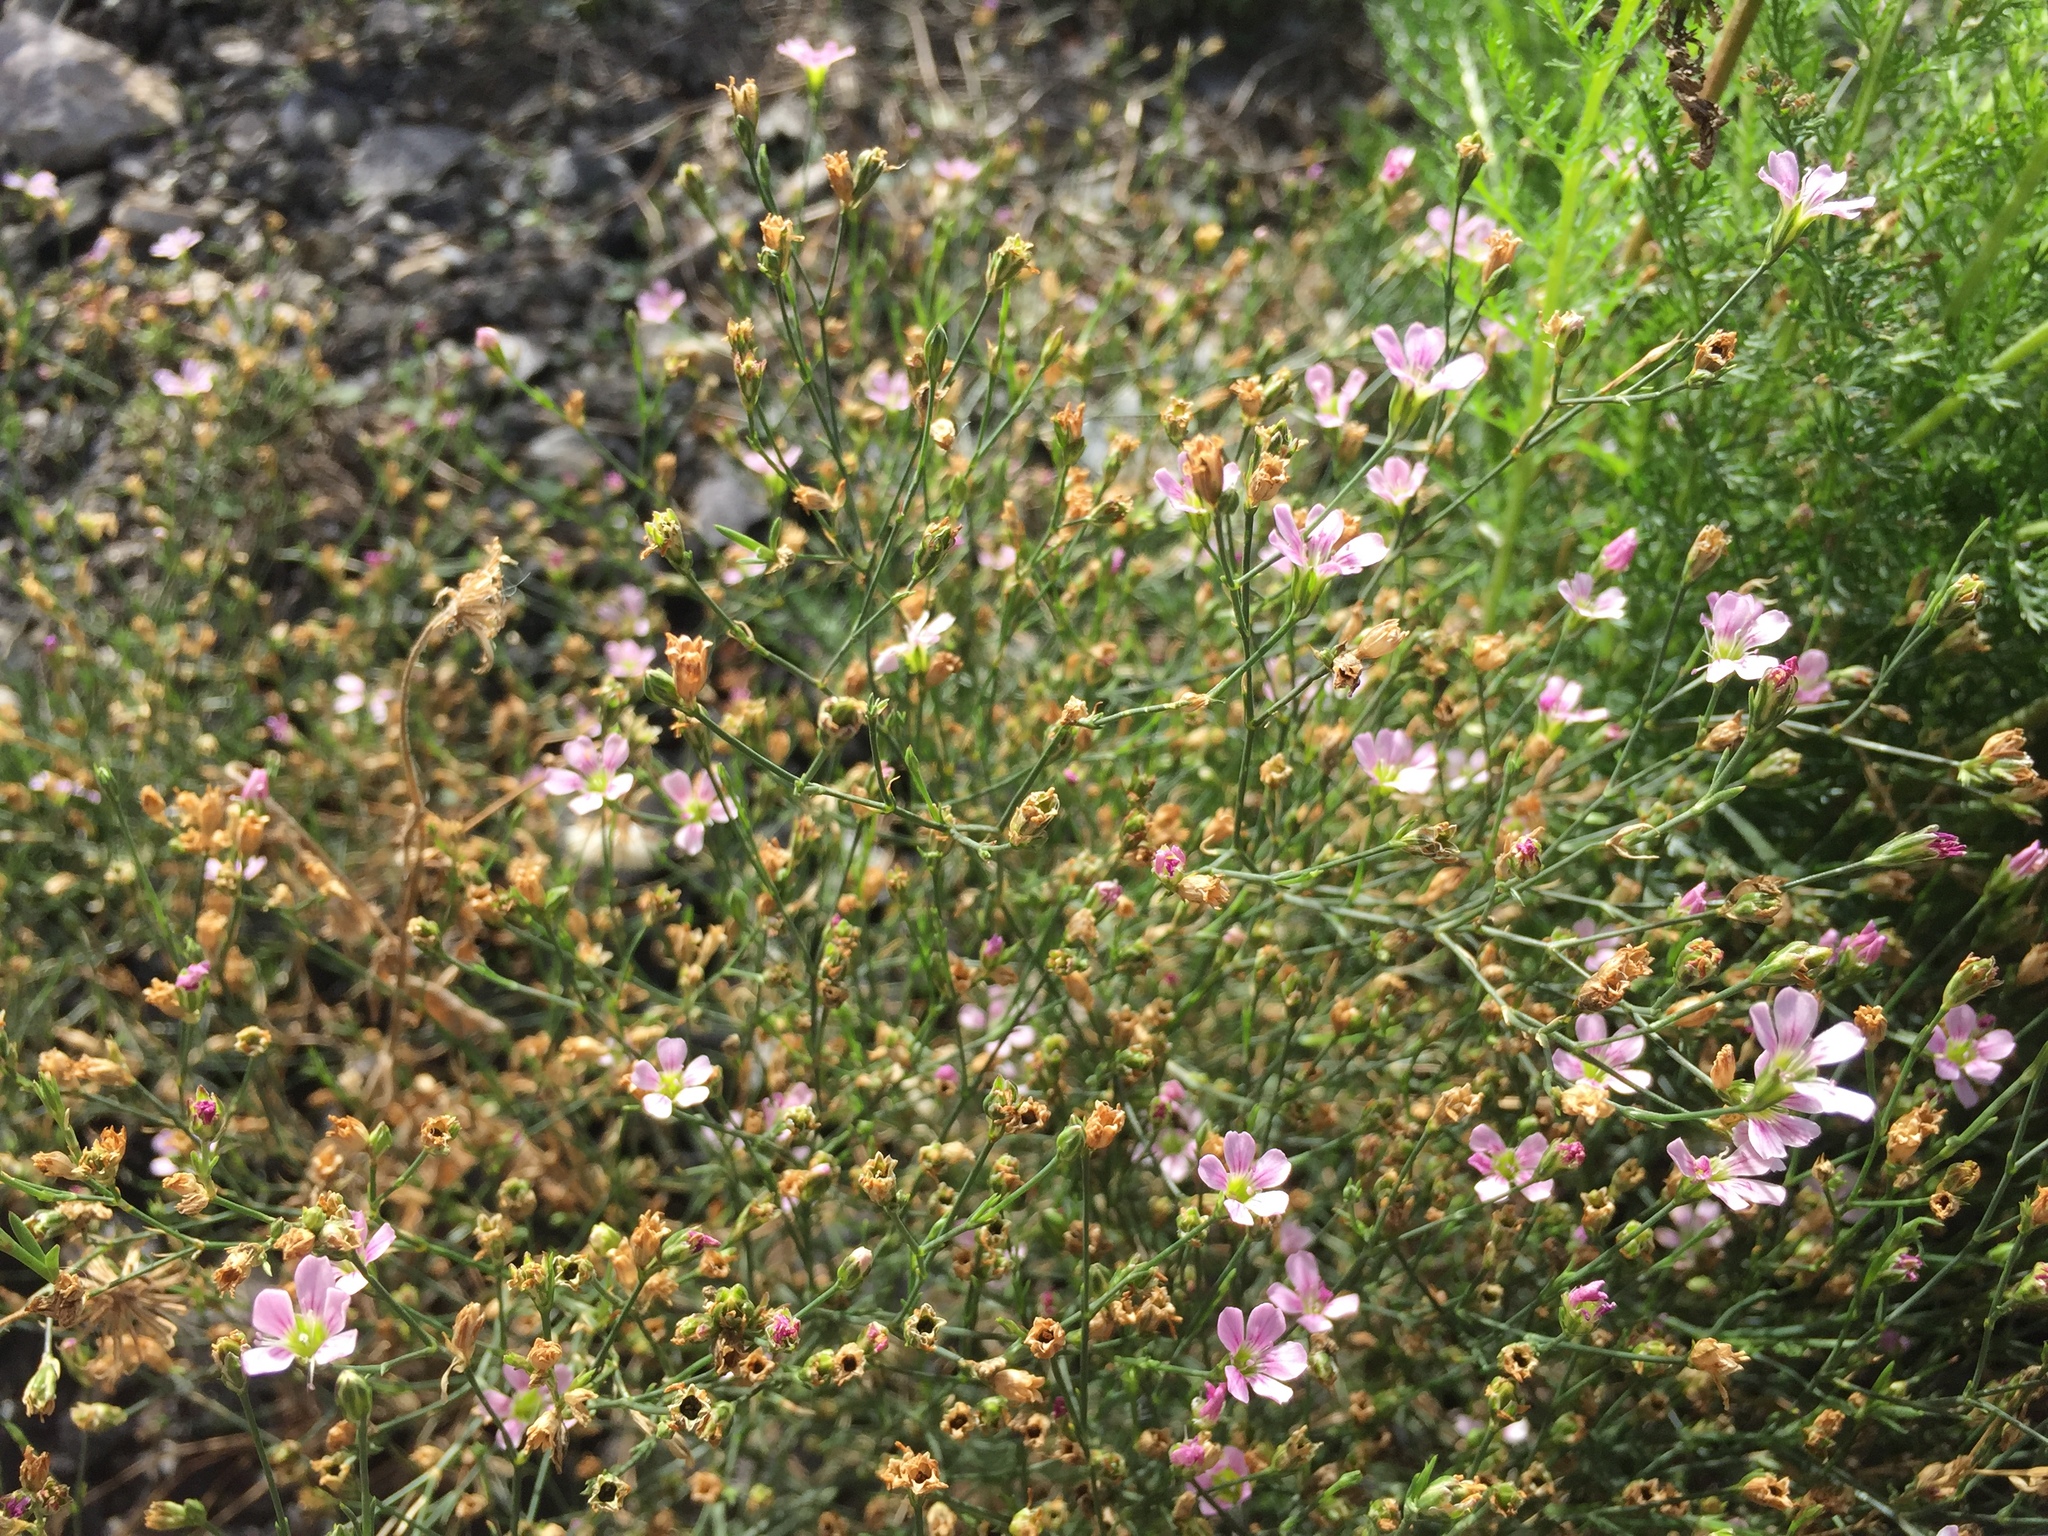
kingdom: Plantae
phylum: Tracheophyta
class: Magnoliopsida
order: Caryophyllales
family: Caryophyllaceae
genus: Petrorhagia
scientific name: Petrorhagia saxifraga
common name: Tunicflower
